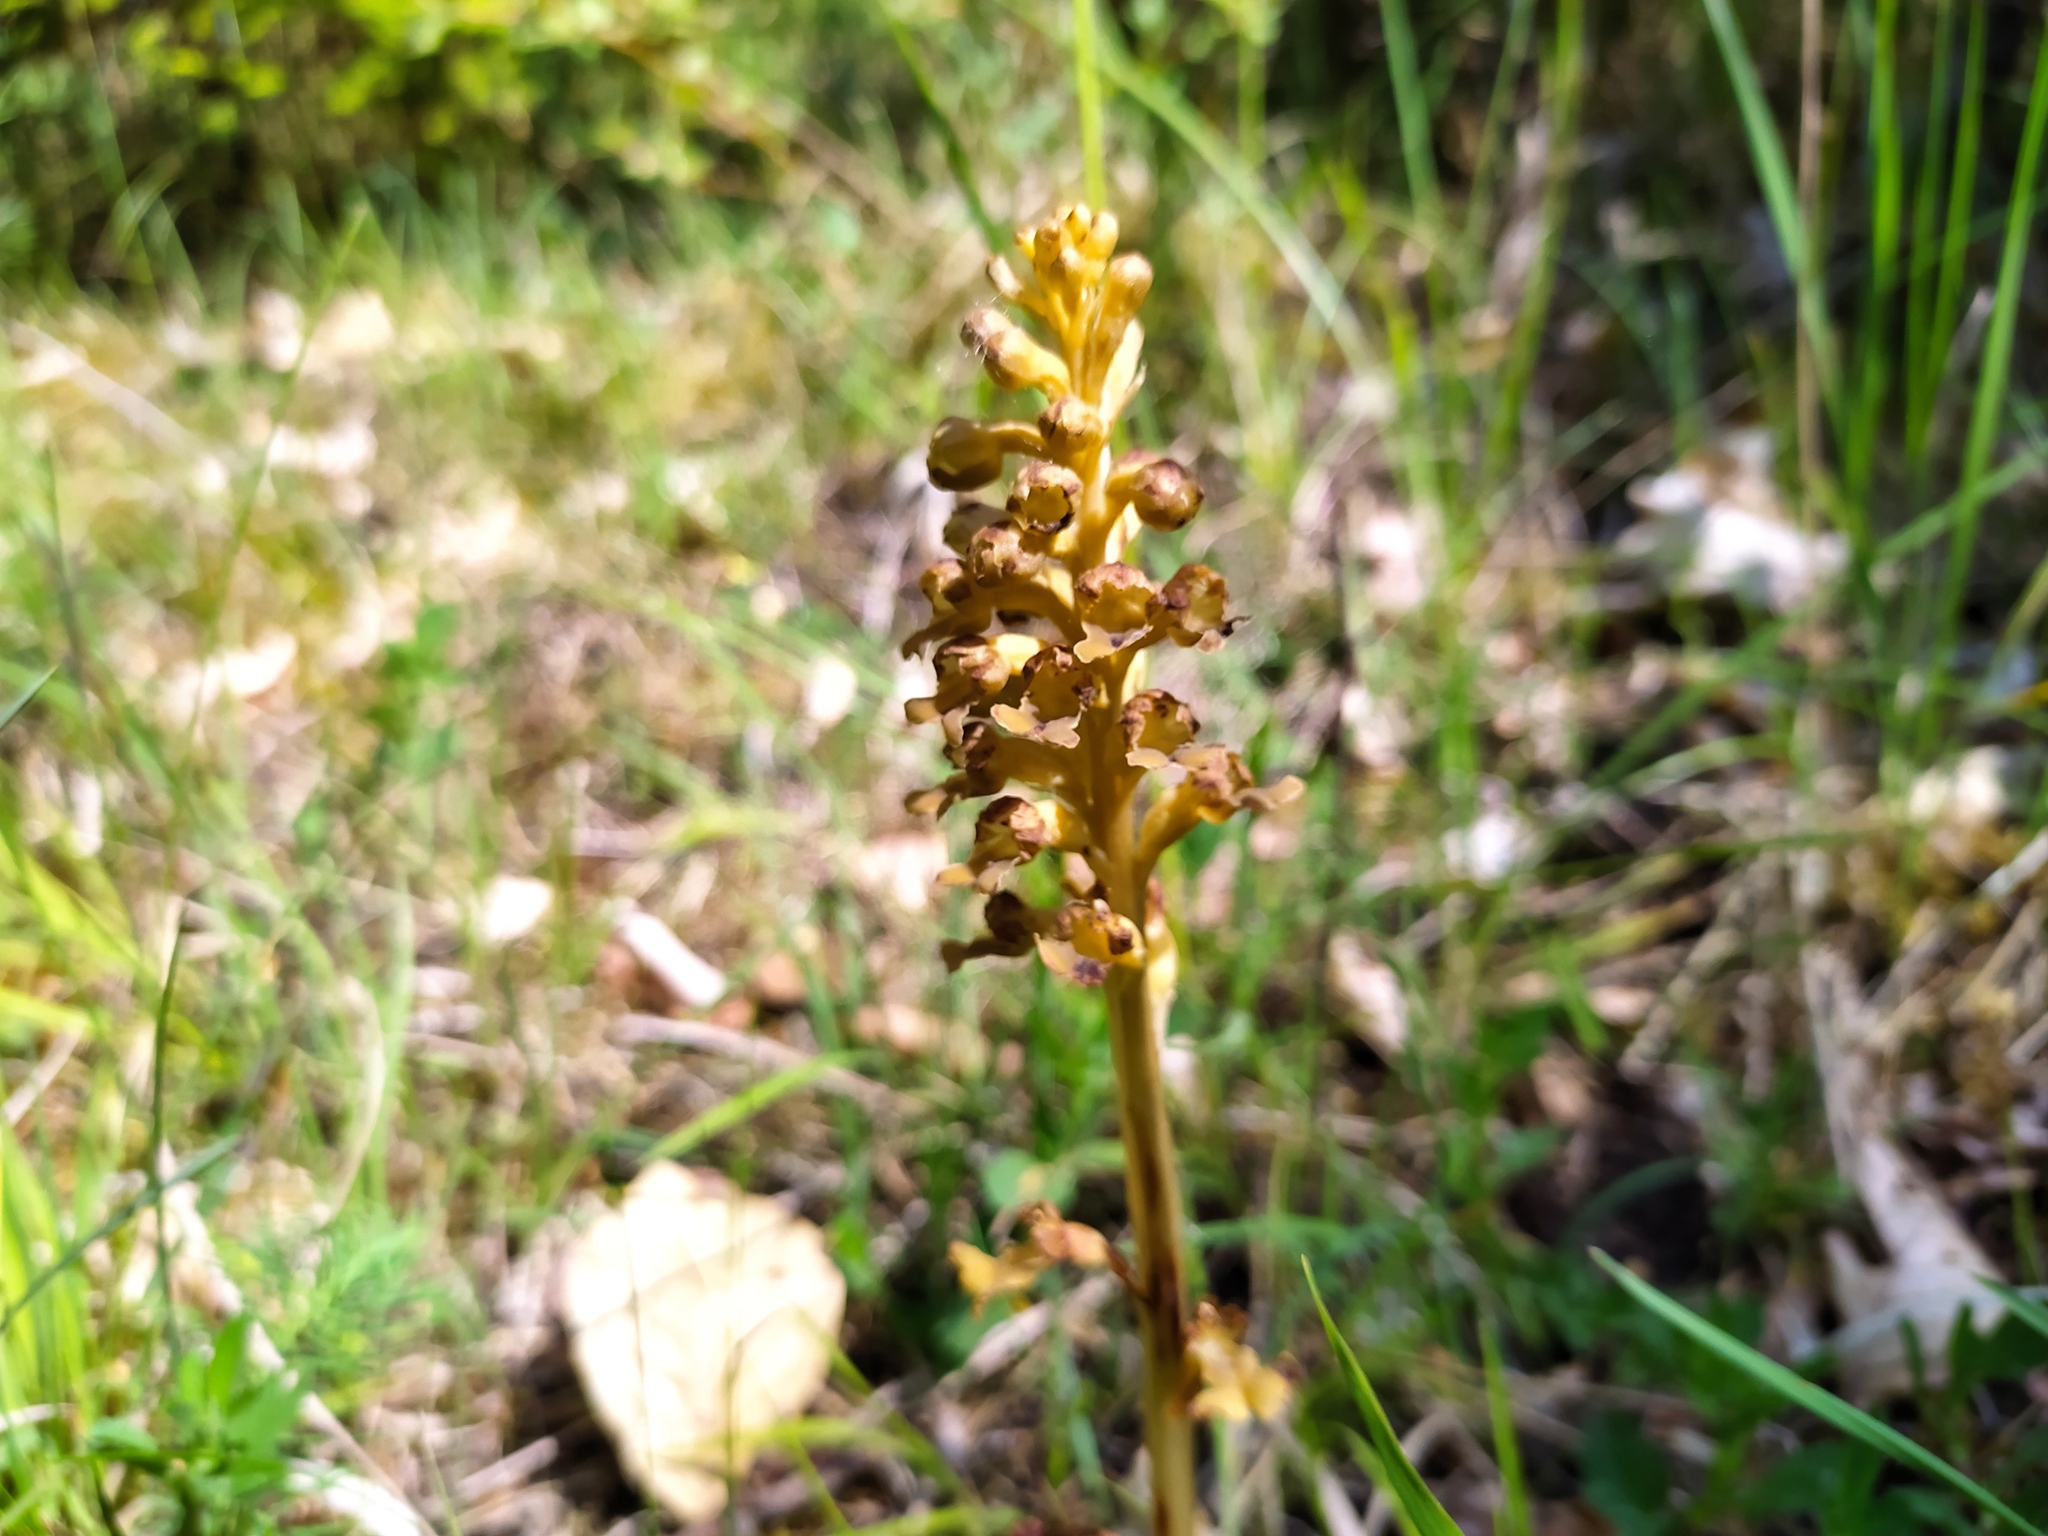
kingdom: Plantae
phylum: Tracheophyta
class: Liliopsida
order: Asparagales
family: Orchidaceae
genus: Neottia
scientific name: Neottia nidus-avis
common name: Bird's-nest orchid
